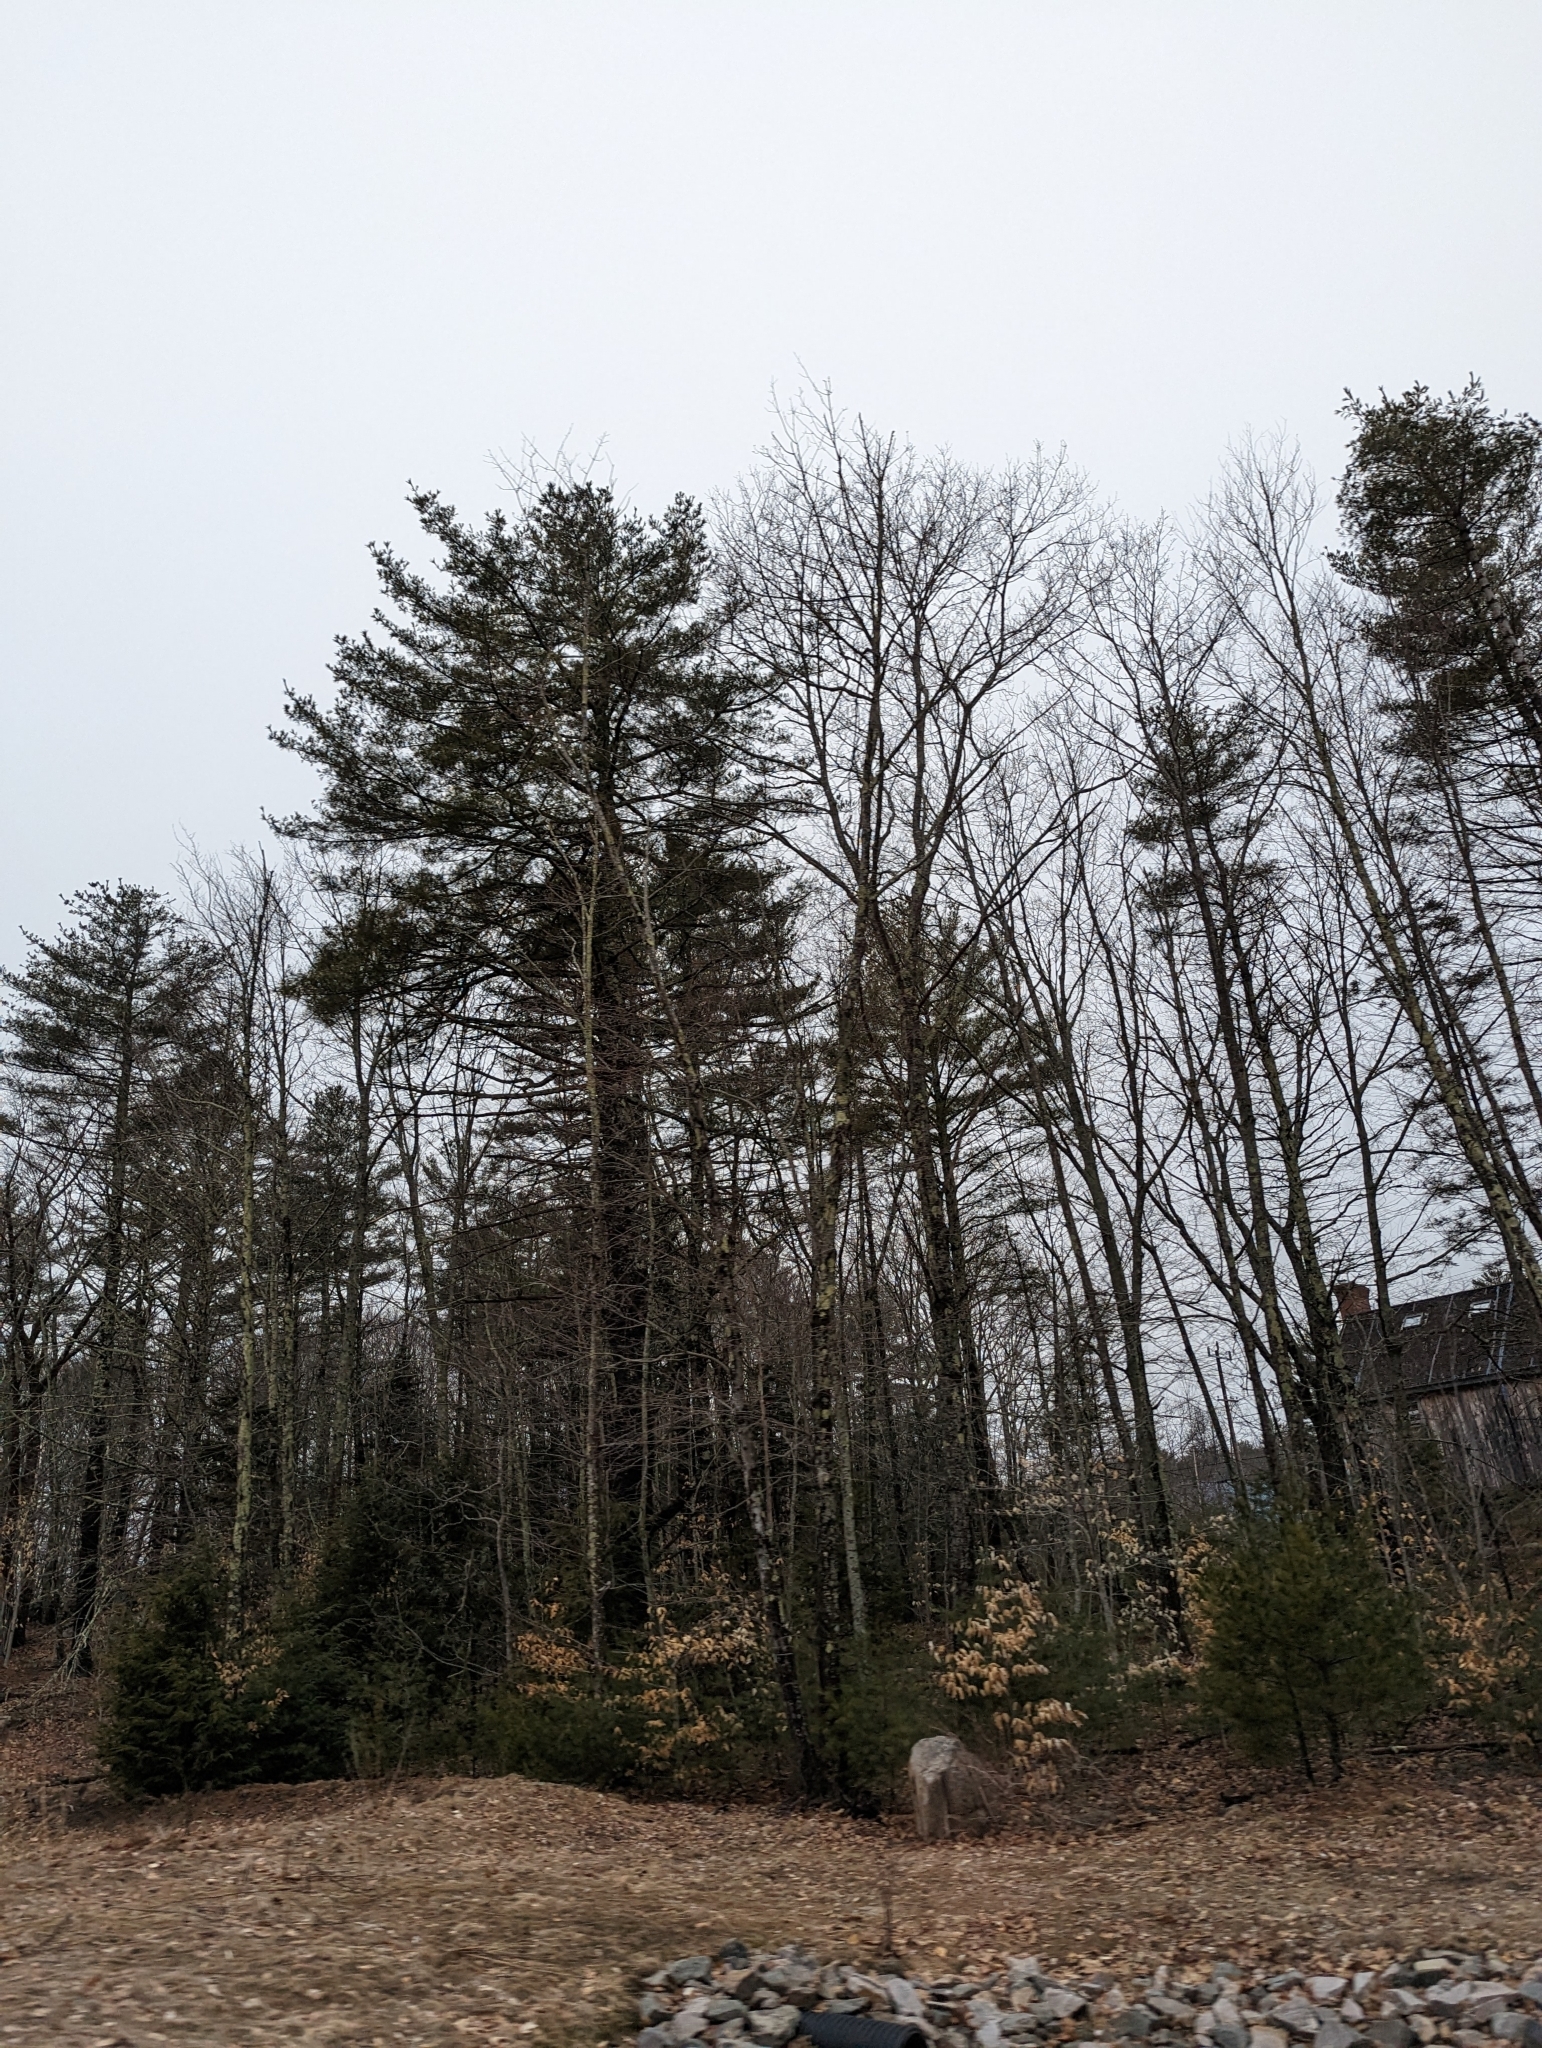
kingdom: Plantae
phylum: Tracheophyta
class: Pinopsida
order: Pinales
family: Pinaceae
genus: Pinus
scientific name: Pinus strobus
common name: Weymouth pine
